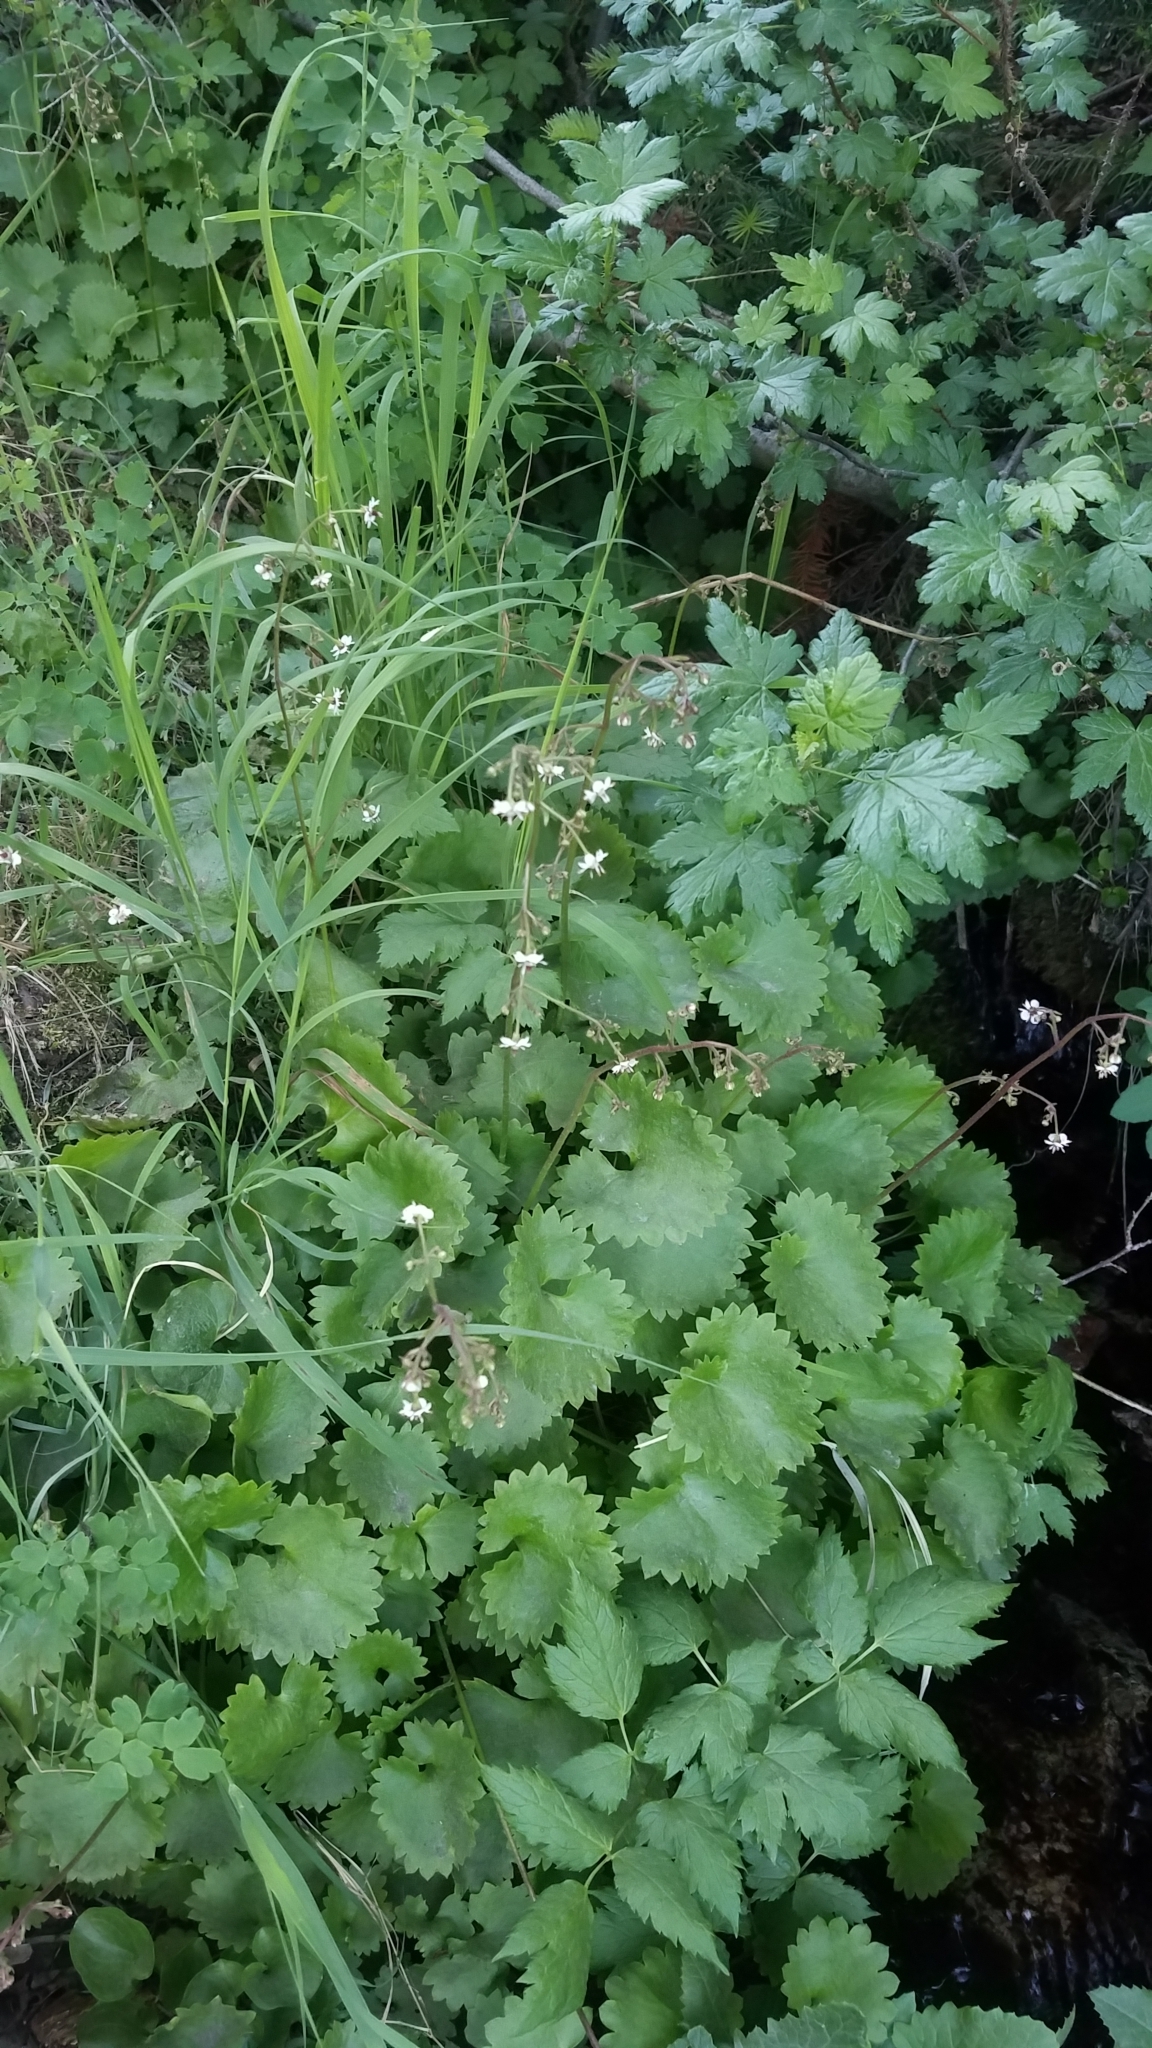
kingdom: Plantae
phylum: Tracheophyta
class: Magnoliopsida
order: Saxifragales
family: Saxifragaceae
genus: Micranthes
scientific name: Micranthes odontoloma
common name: Brook saxifrage
